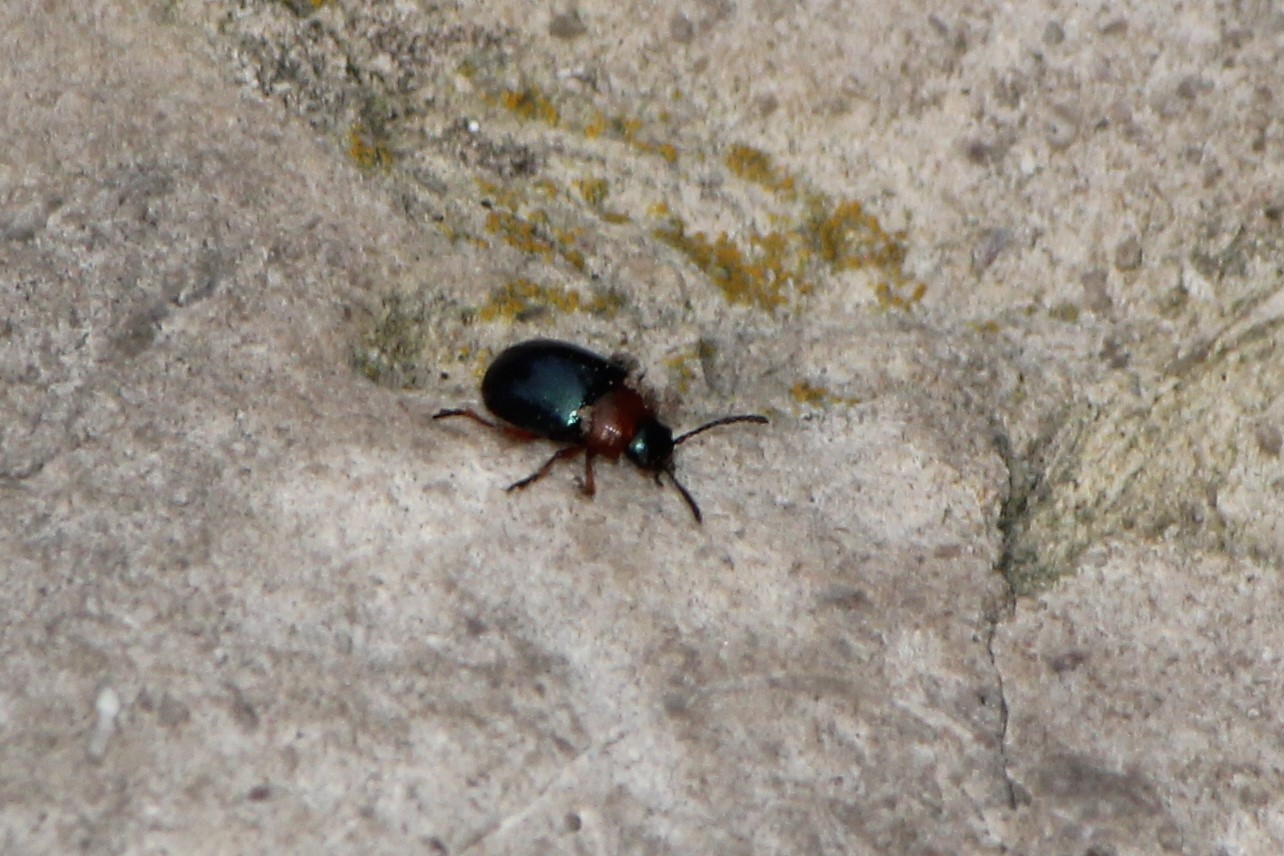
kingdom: Animalia
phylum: Arthropoda
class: Insecta
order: Coleoptera
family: Chrysomelidae
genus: Gastrophysa
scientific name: Gastrophysa polygoni
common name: Knotweed leaf beetle
